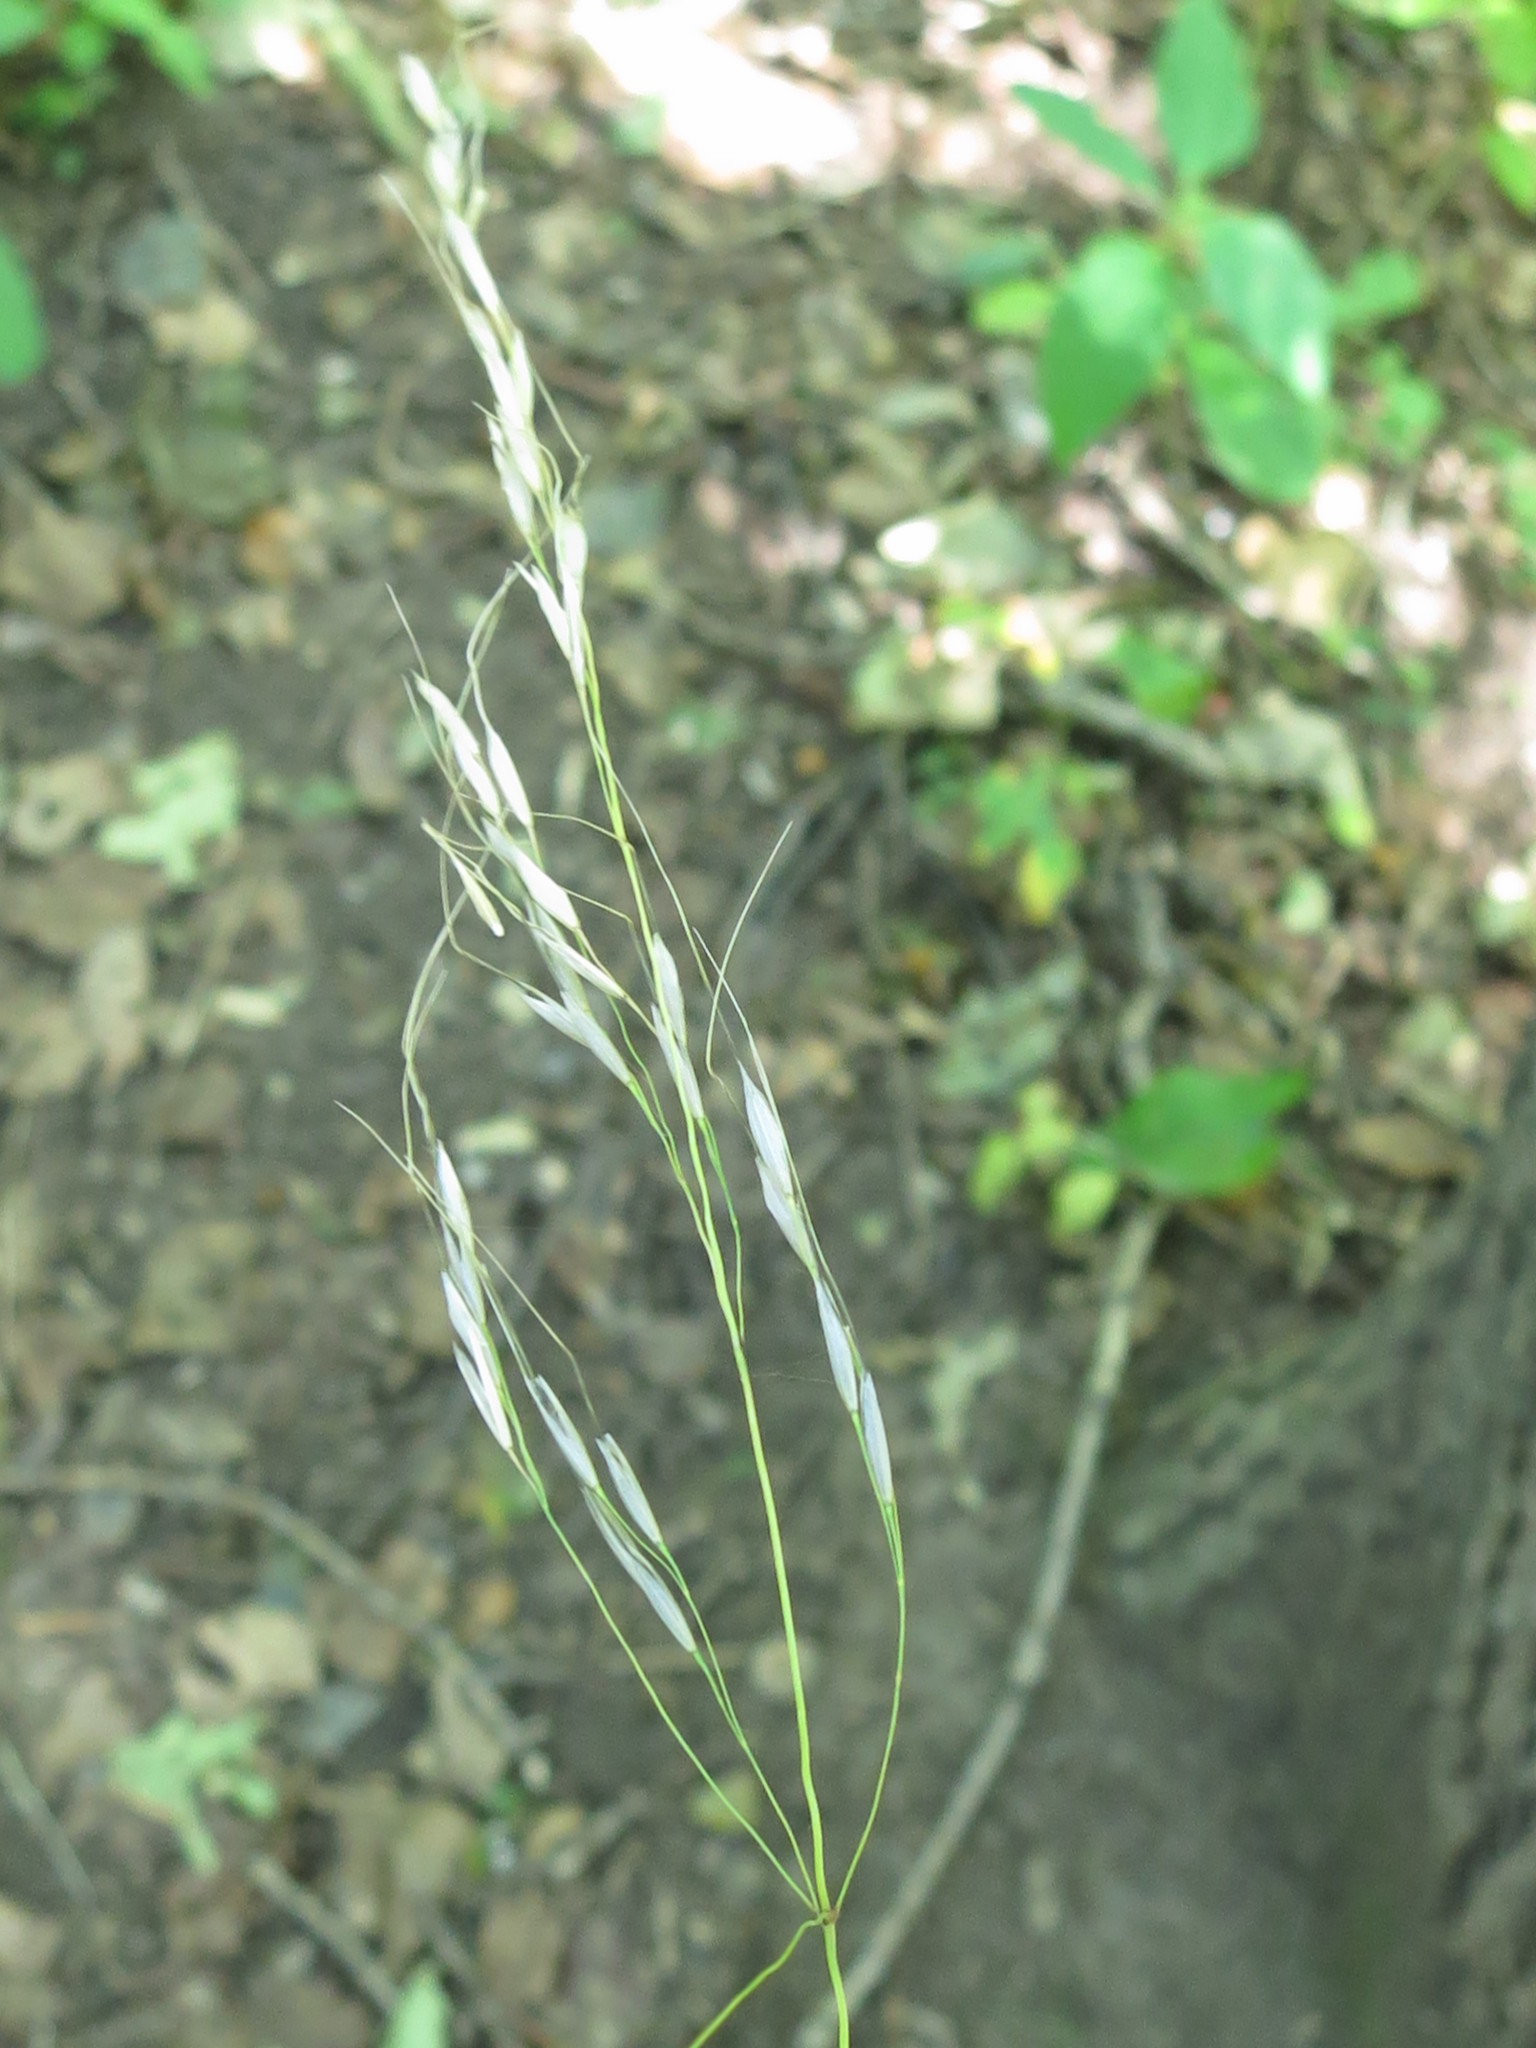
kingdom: Plantae
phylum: Tracheophyta
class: Liliopsida
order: Poales
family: Poaceae
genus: Achnatherum
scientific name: Achnatherum pekinense
